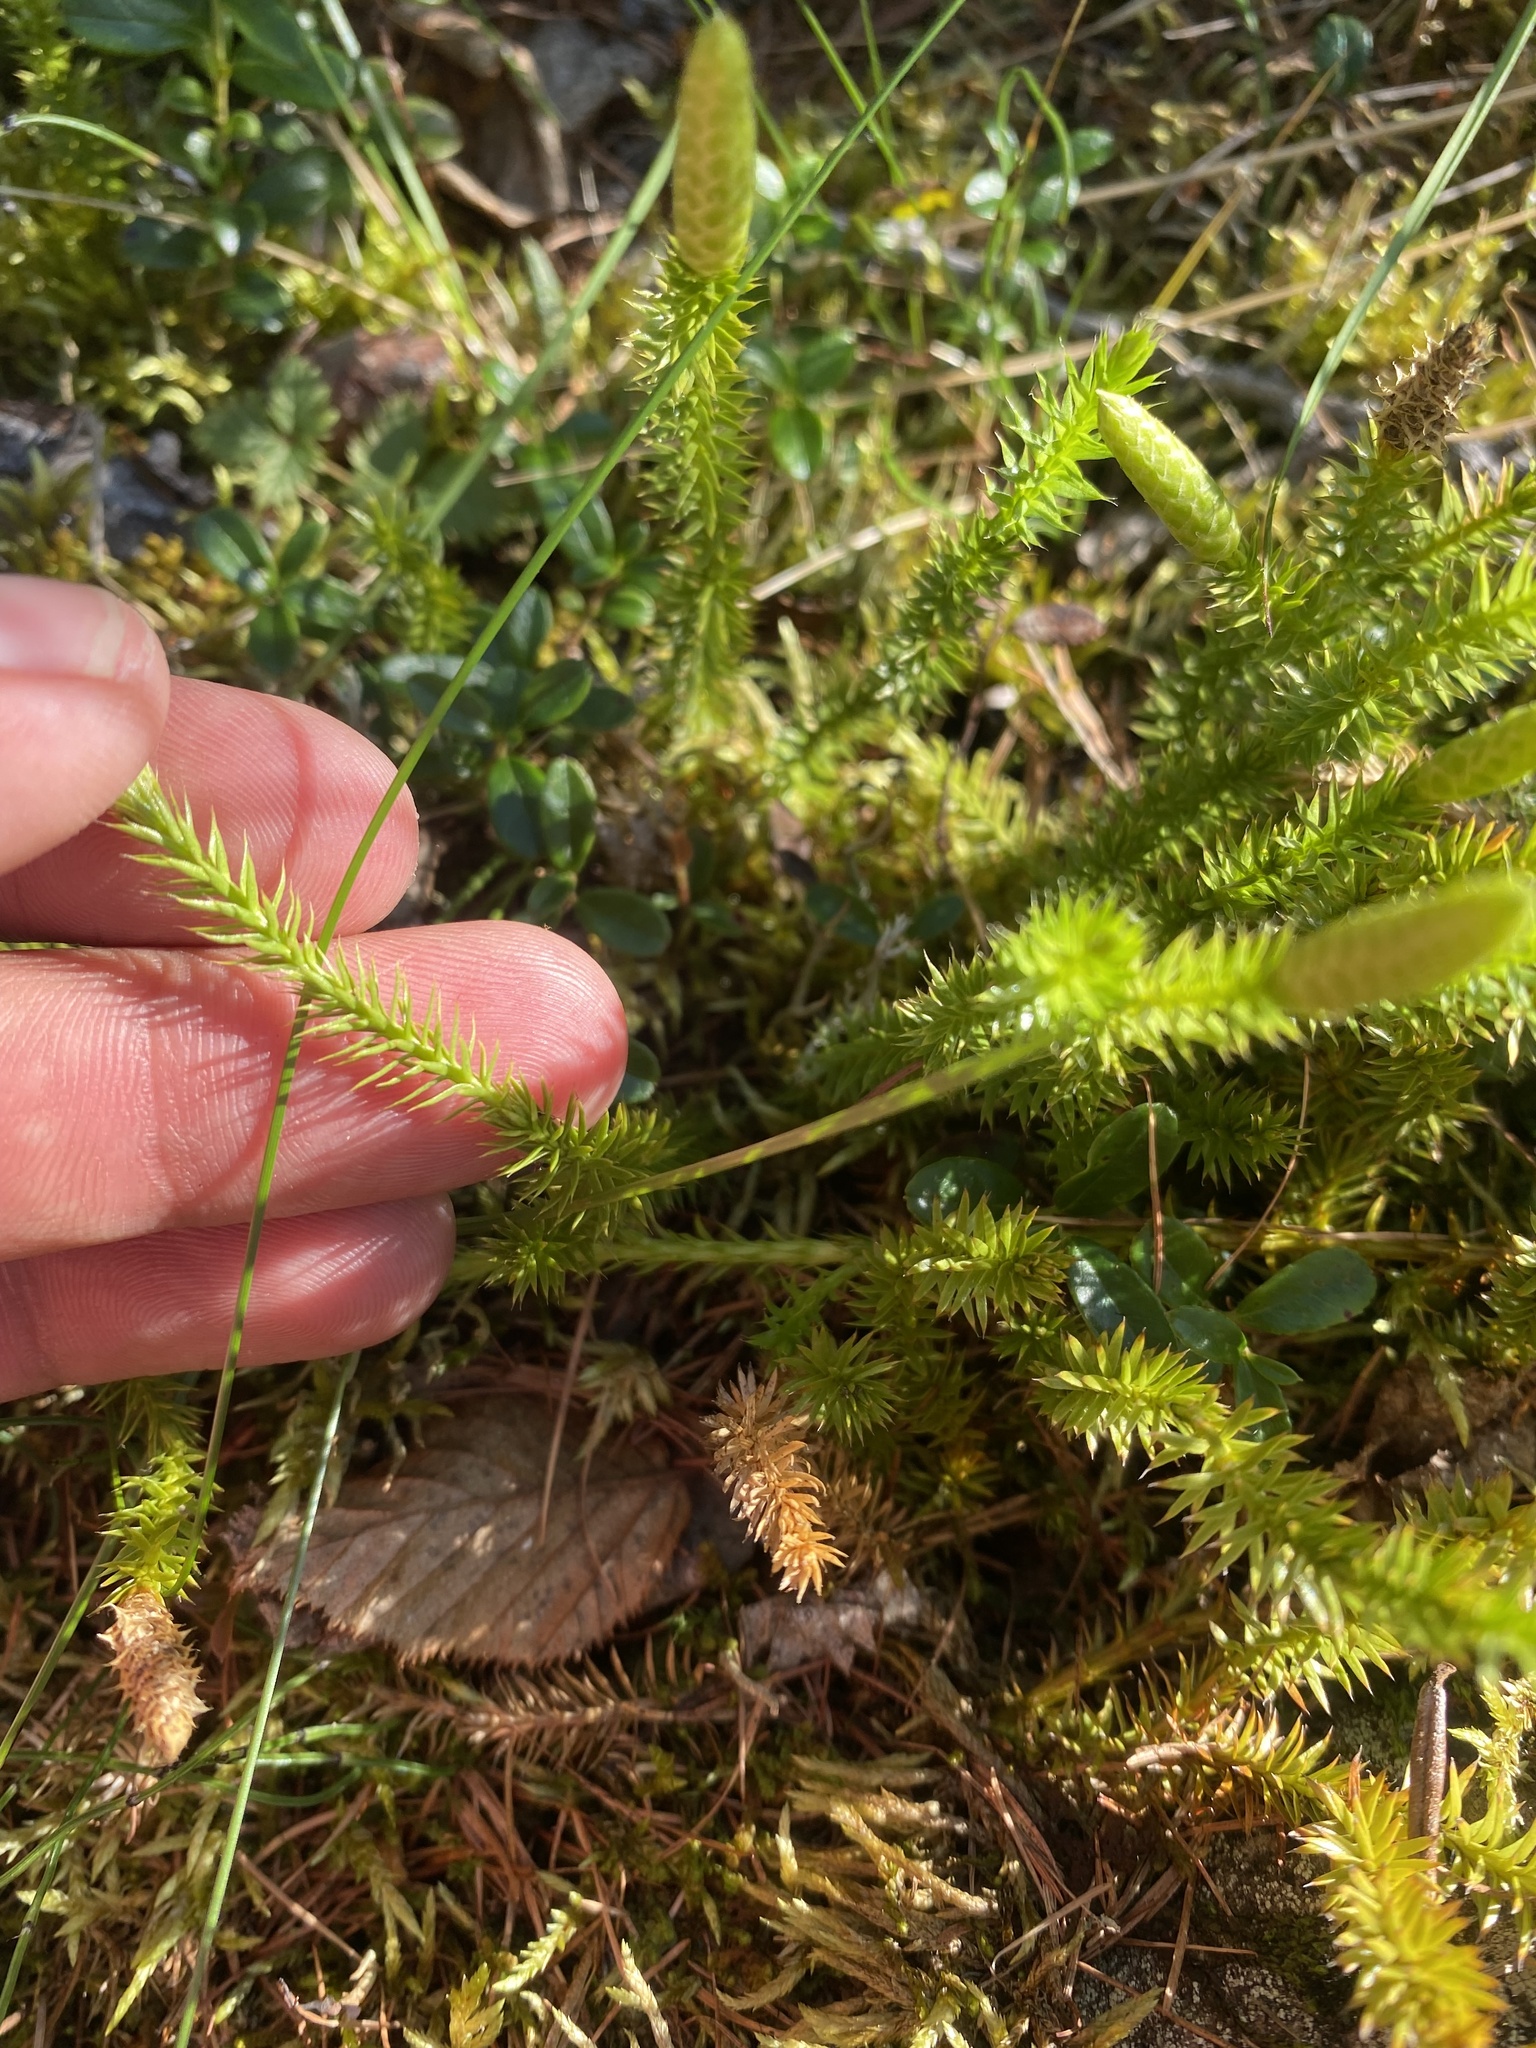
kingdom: Plantae
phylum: Tracheophyta
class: Lycopodiopsida
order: Lycopodiales
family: Lycopodiaceae
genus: Spinulum
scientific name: Spinulum annotinum
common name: Interrupted club-moss
